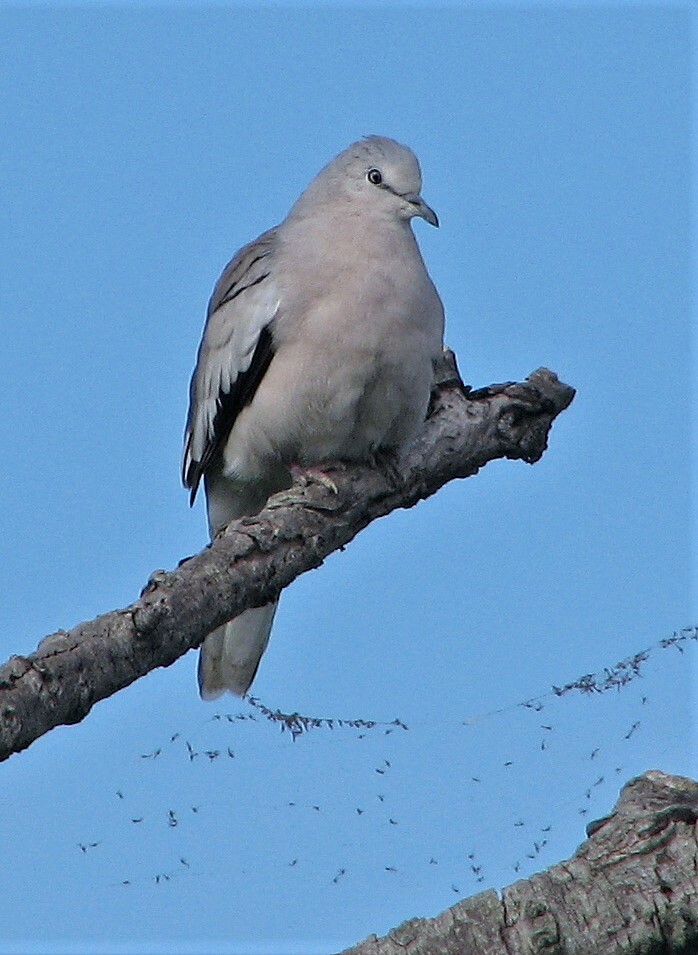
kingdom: Animalia
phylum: Chordata
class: Aves
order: Columbiformes
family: Columbidae
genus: Columbina
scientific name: Columbina picui
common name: Picui ground dove
